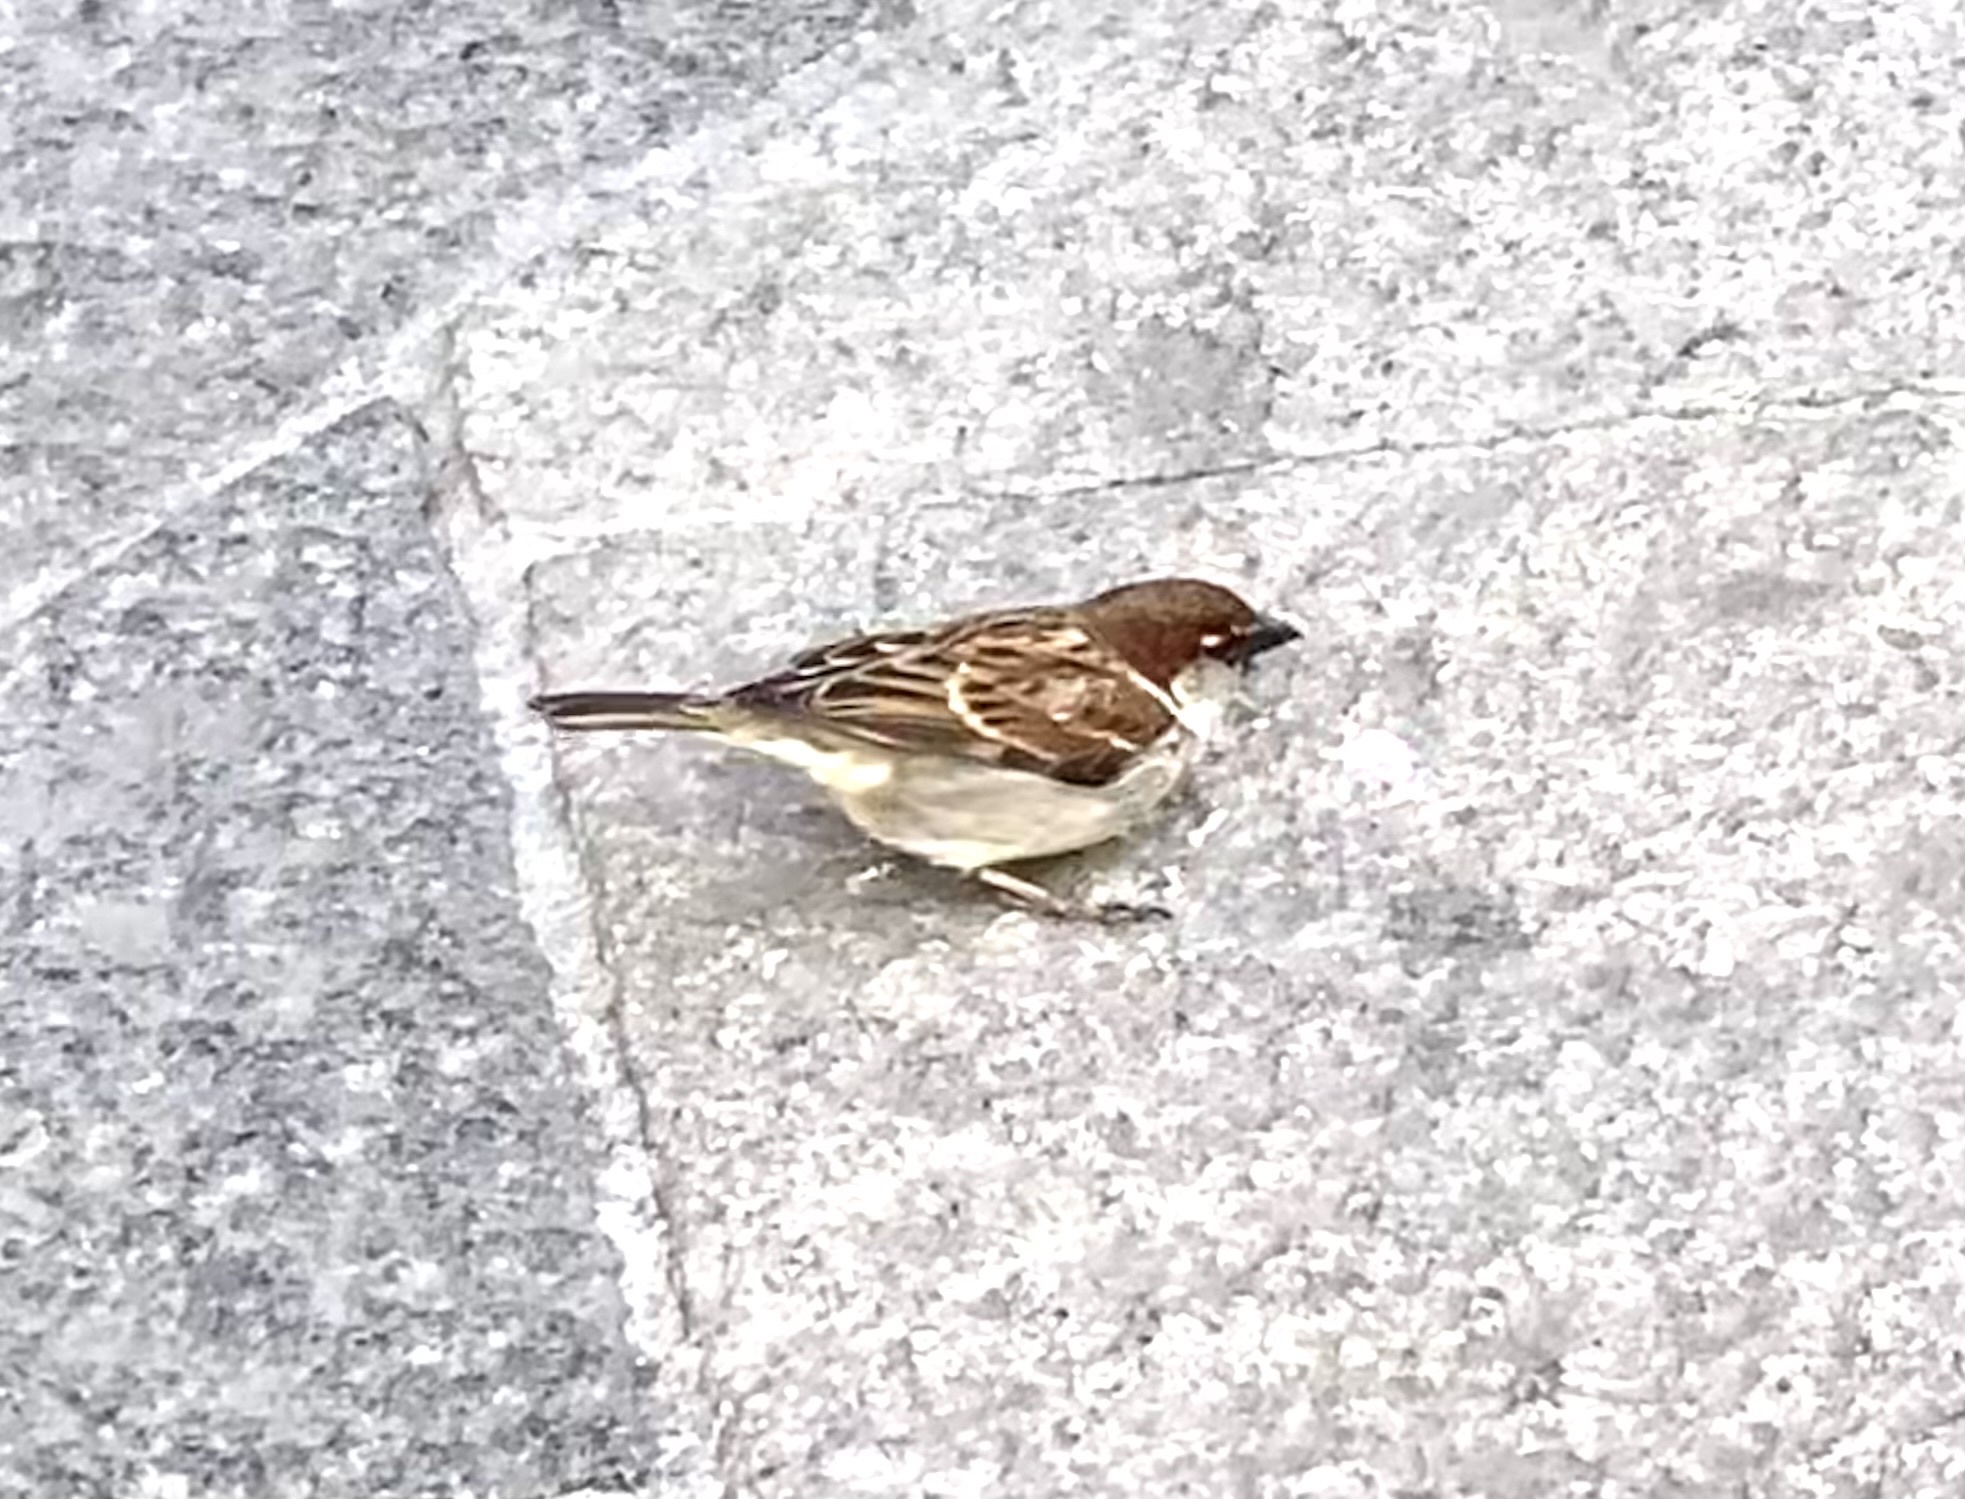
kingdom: Animalia
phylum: Chordata
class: Aves
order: Passeriformes
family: Passeridae
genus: Passer
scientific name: Passer italiae
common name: Italian sparrow
